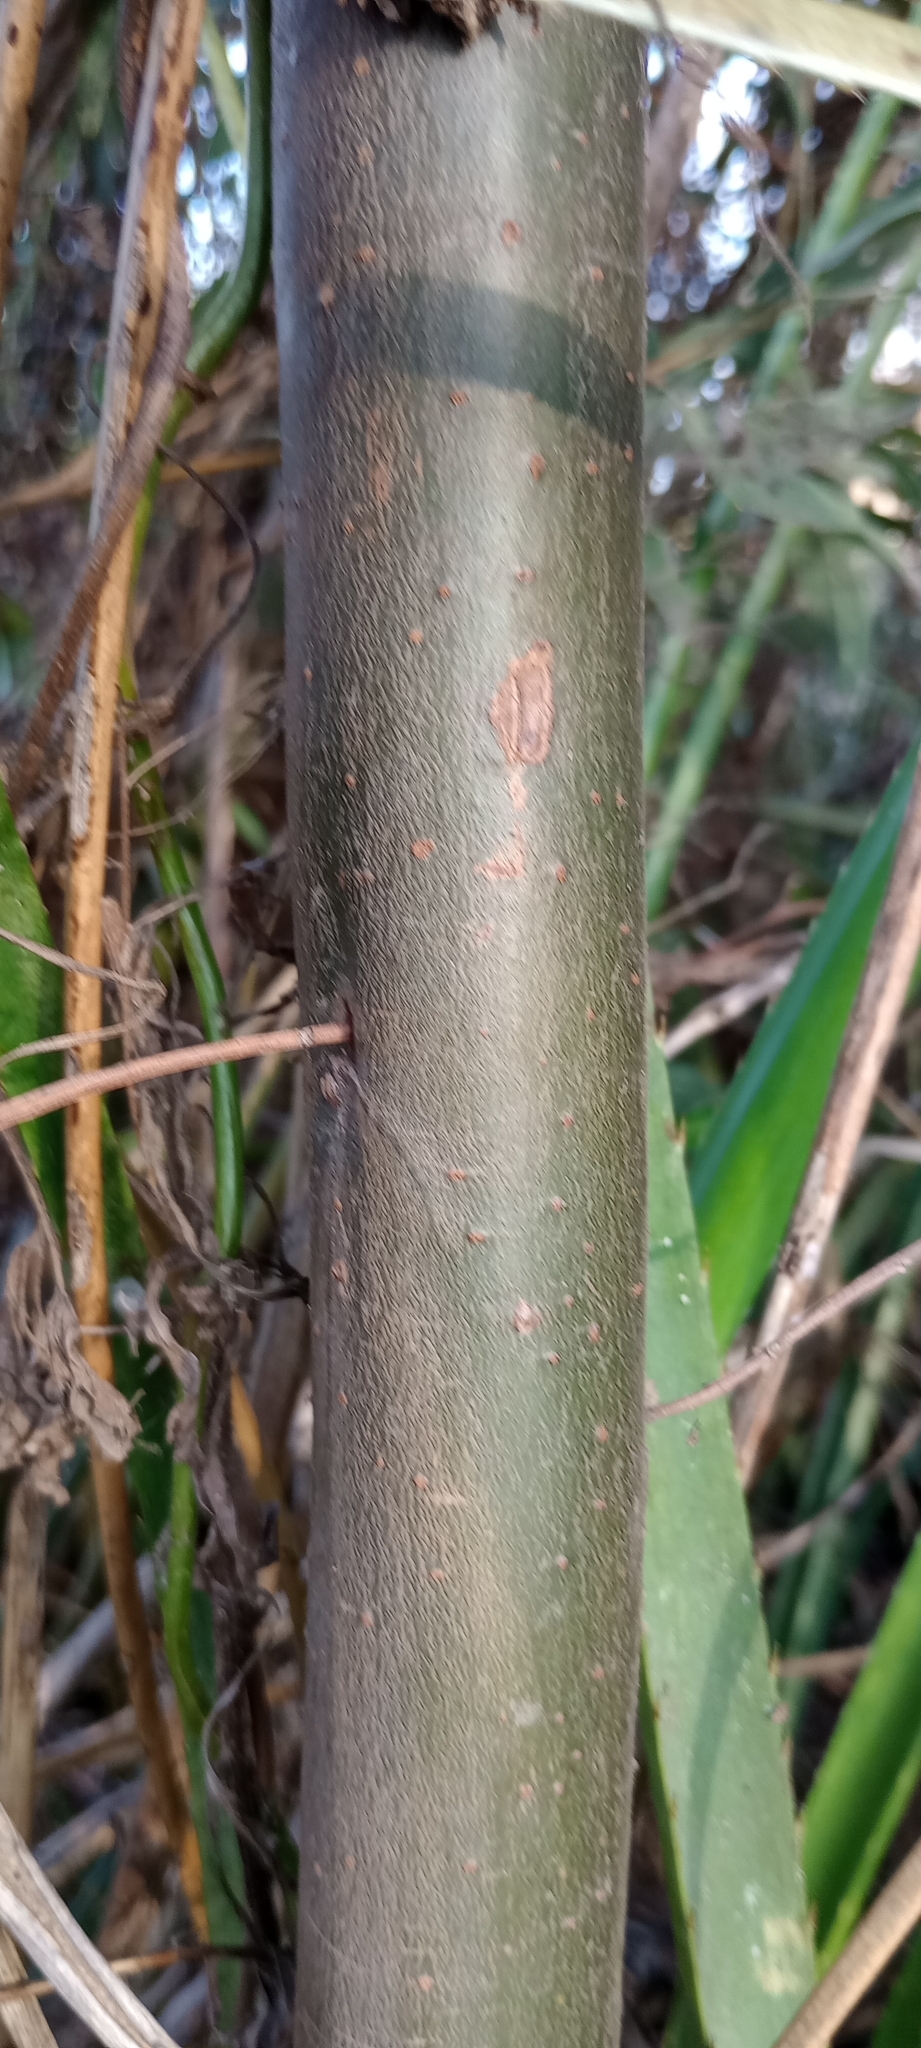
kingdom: Plantae
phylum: Tracheophyta
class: Magnoliopsida
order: Asterales
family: Asteraceae
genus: Tessaria
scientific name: Tessaria integrifolia
